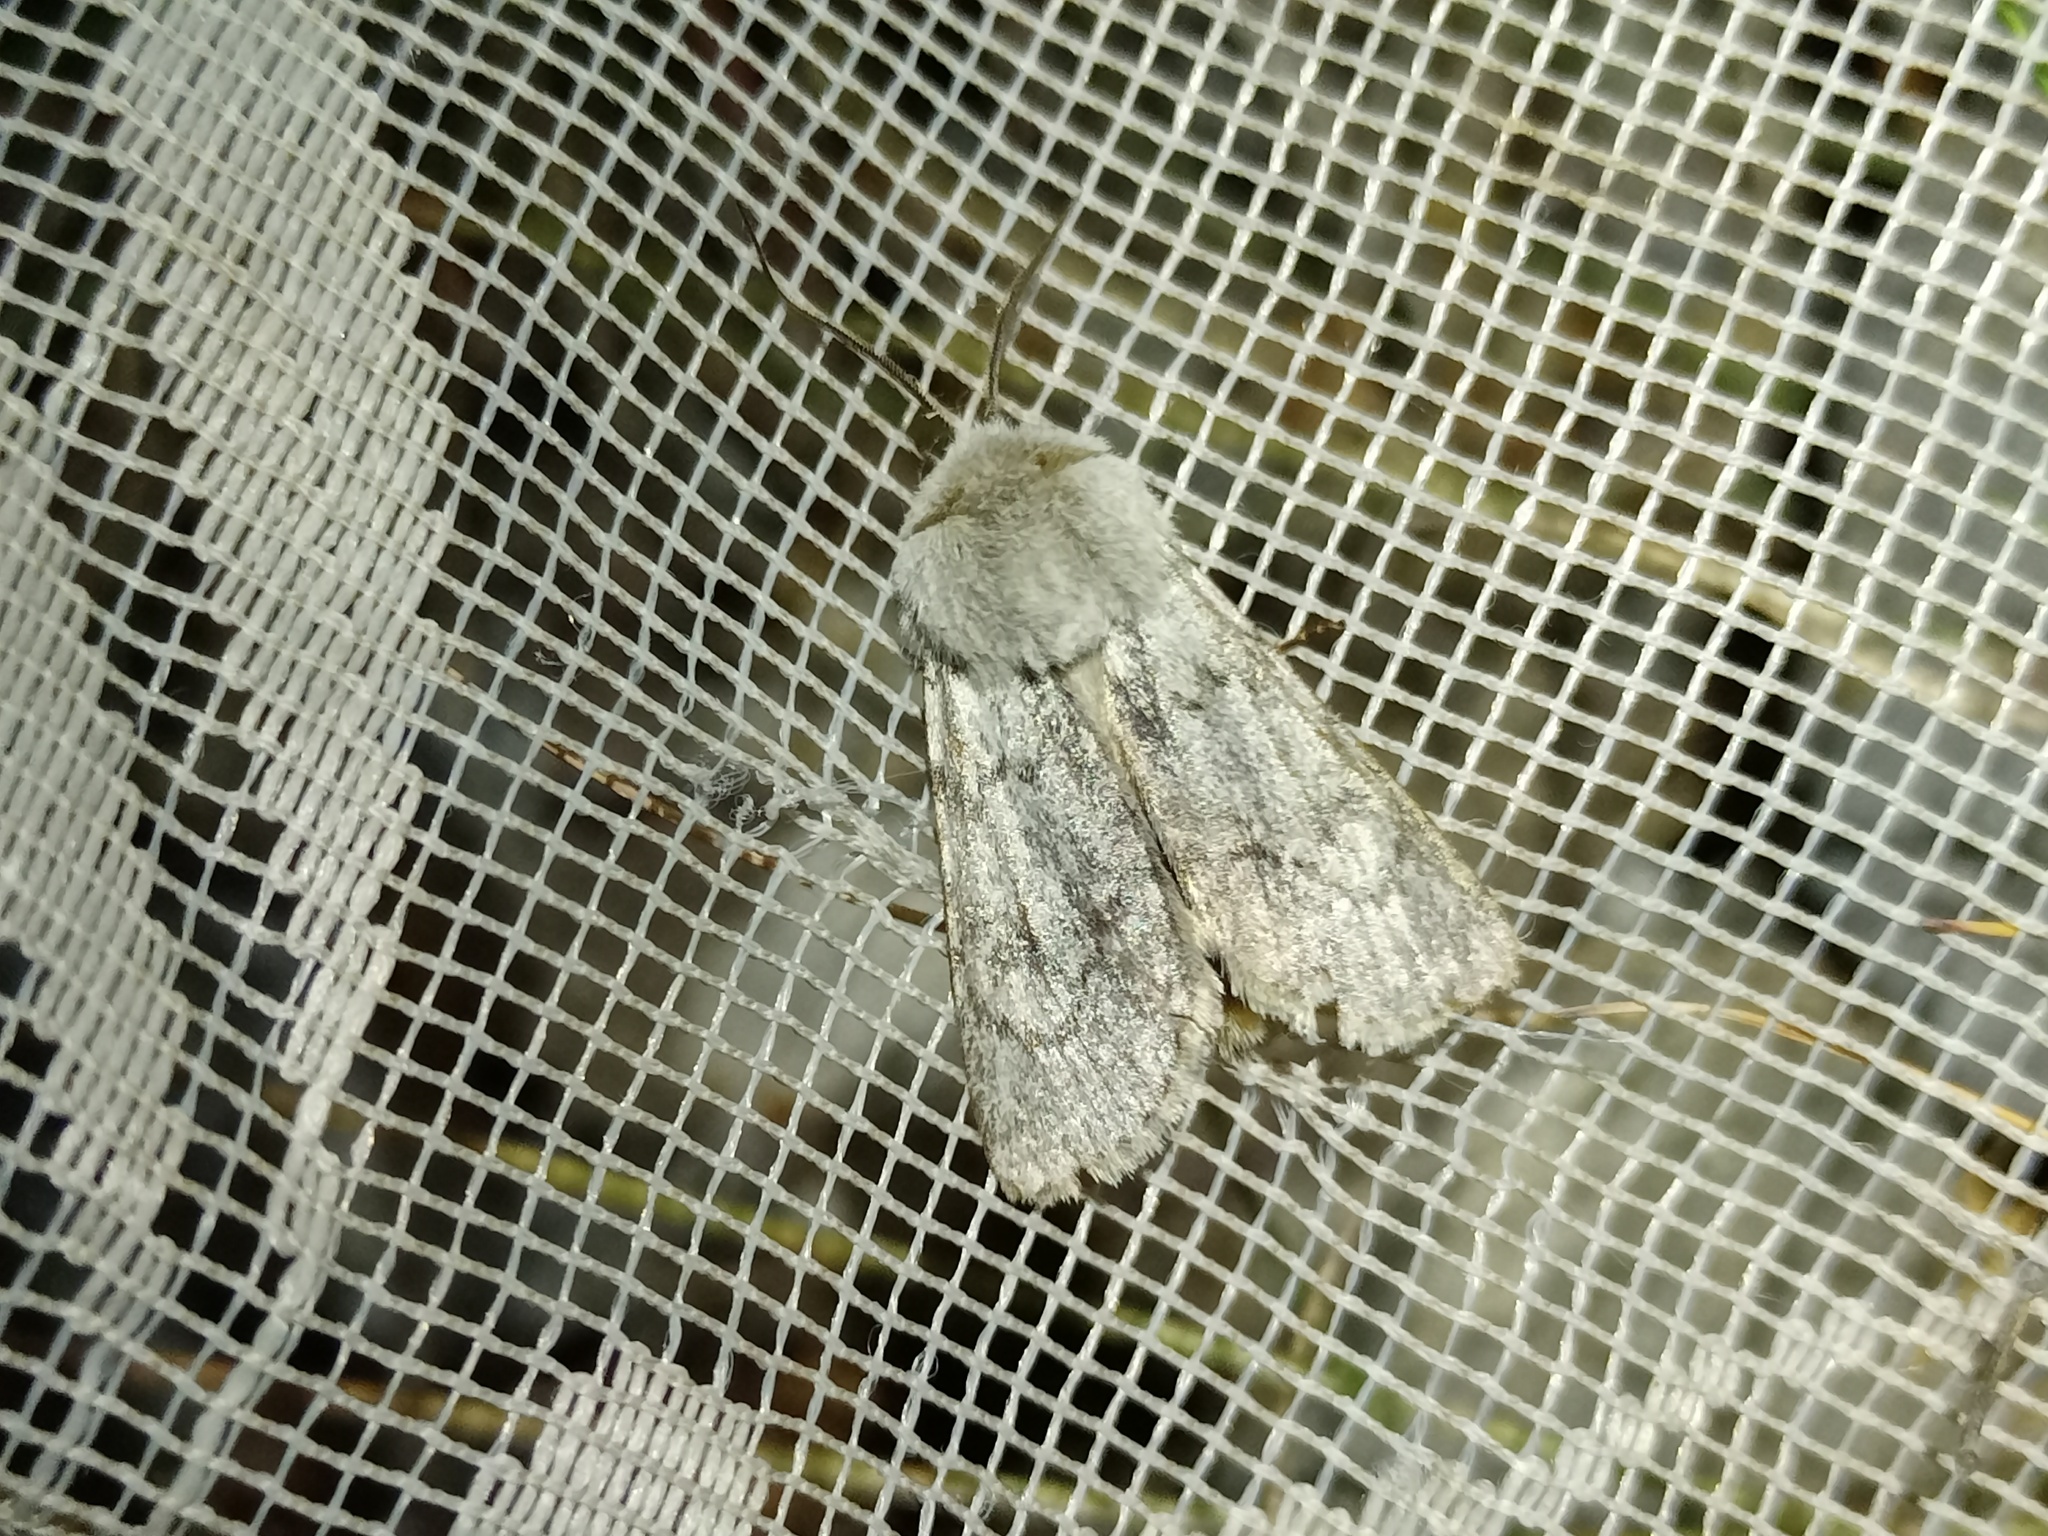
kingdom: Animalia
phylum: Arthropoda
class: Insecta
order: Lepidoptera
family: Noctuidae
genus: Agrotis
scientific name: Agrotis simplonia
